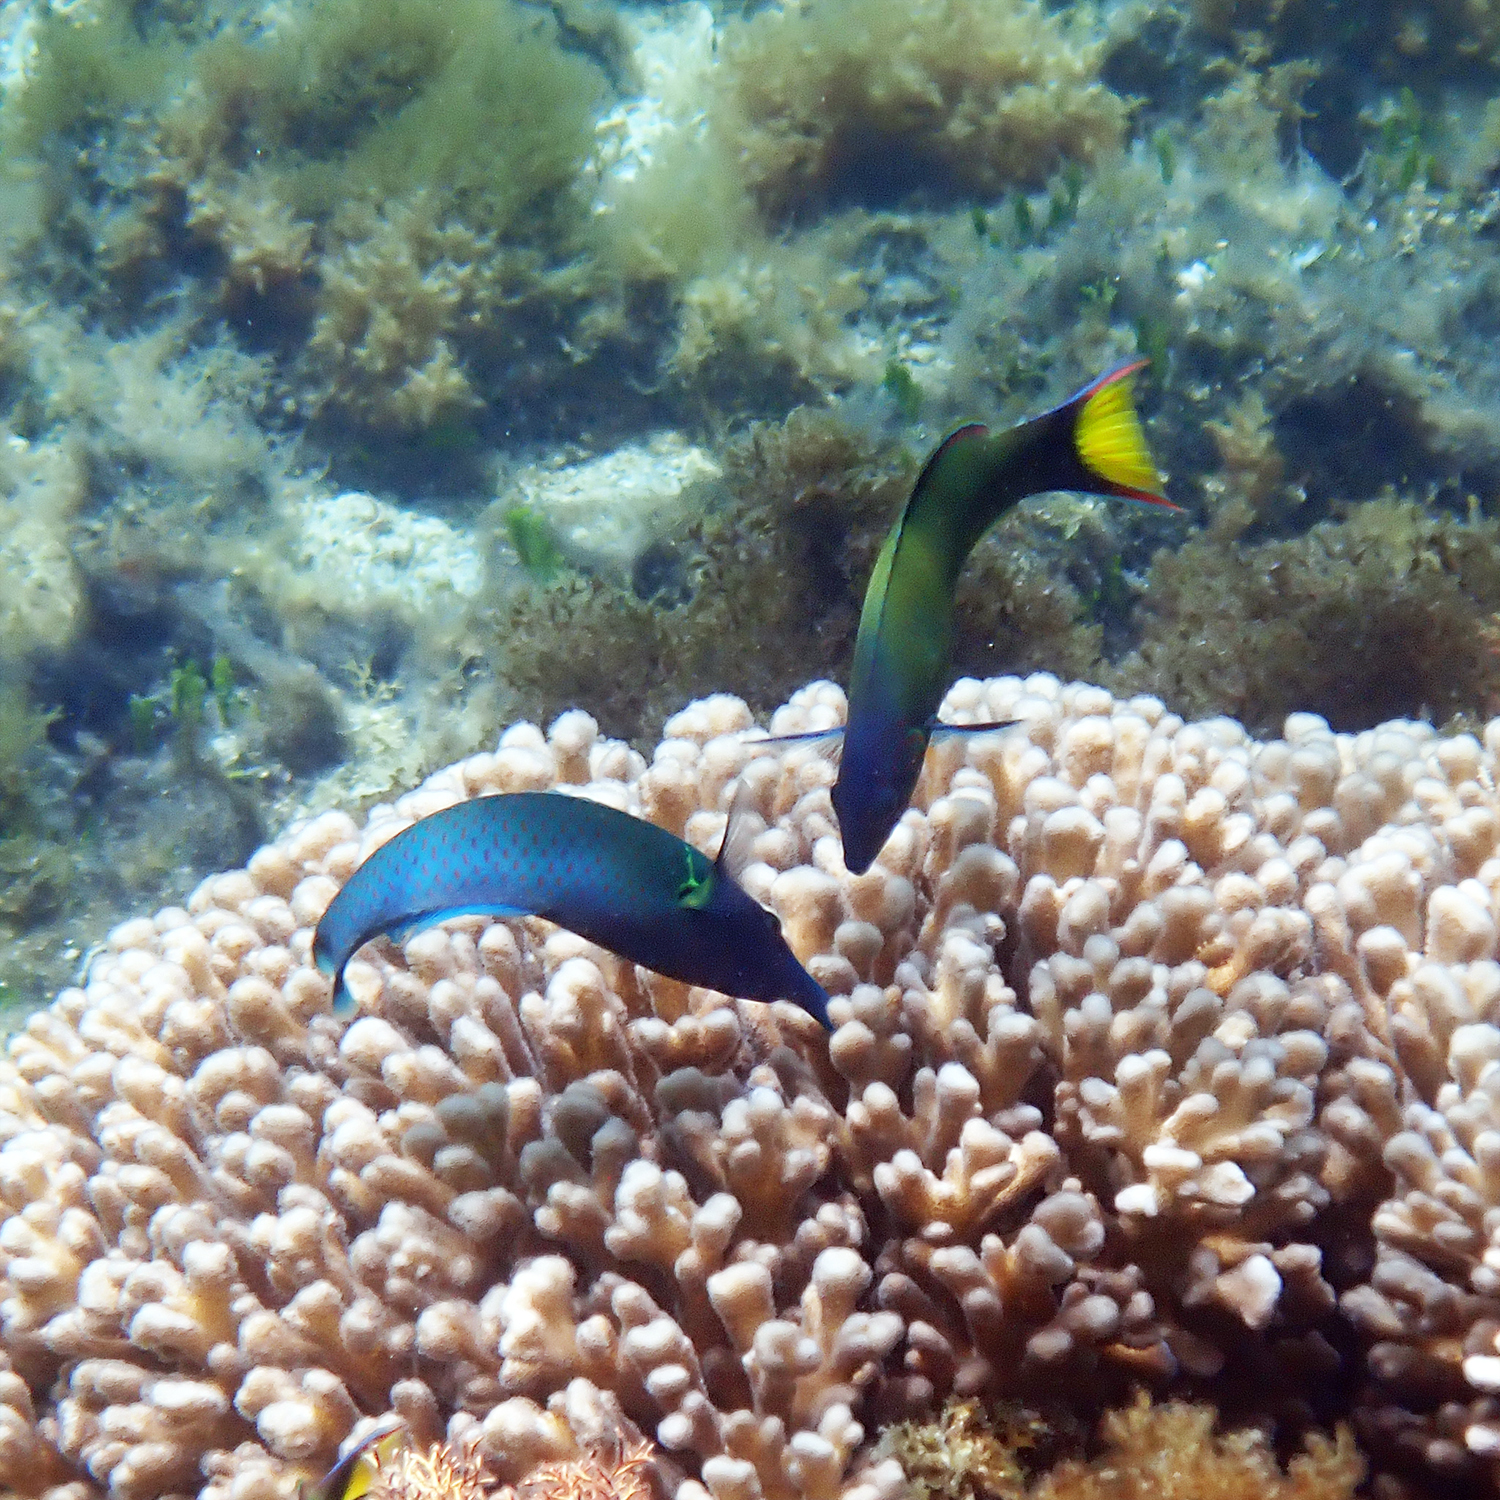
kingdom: Animalia
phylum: Chordata
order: Perciformes
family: Labridae
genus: Thalassoma
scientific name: Thalassoma lunare
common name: Blue wrasse
